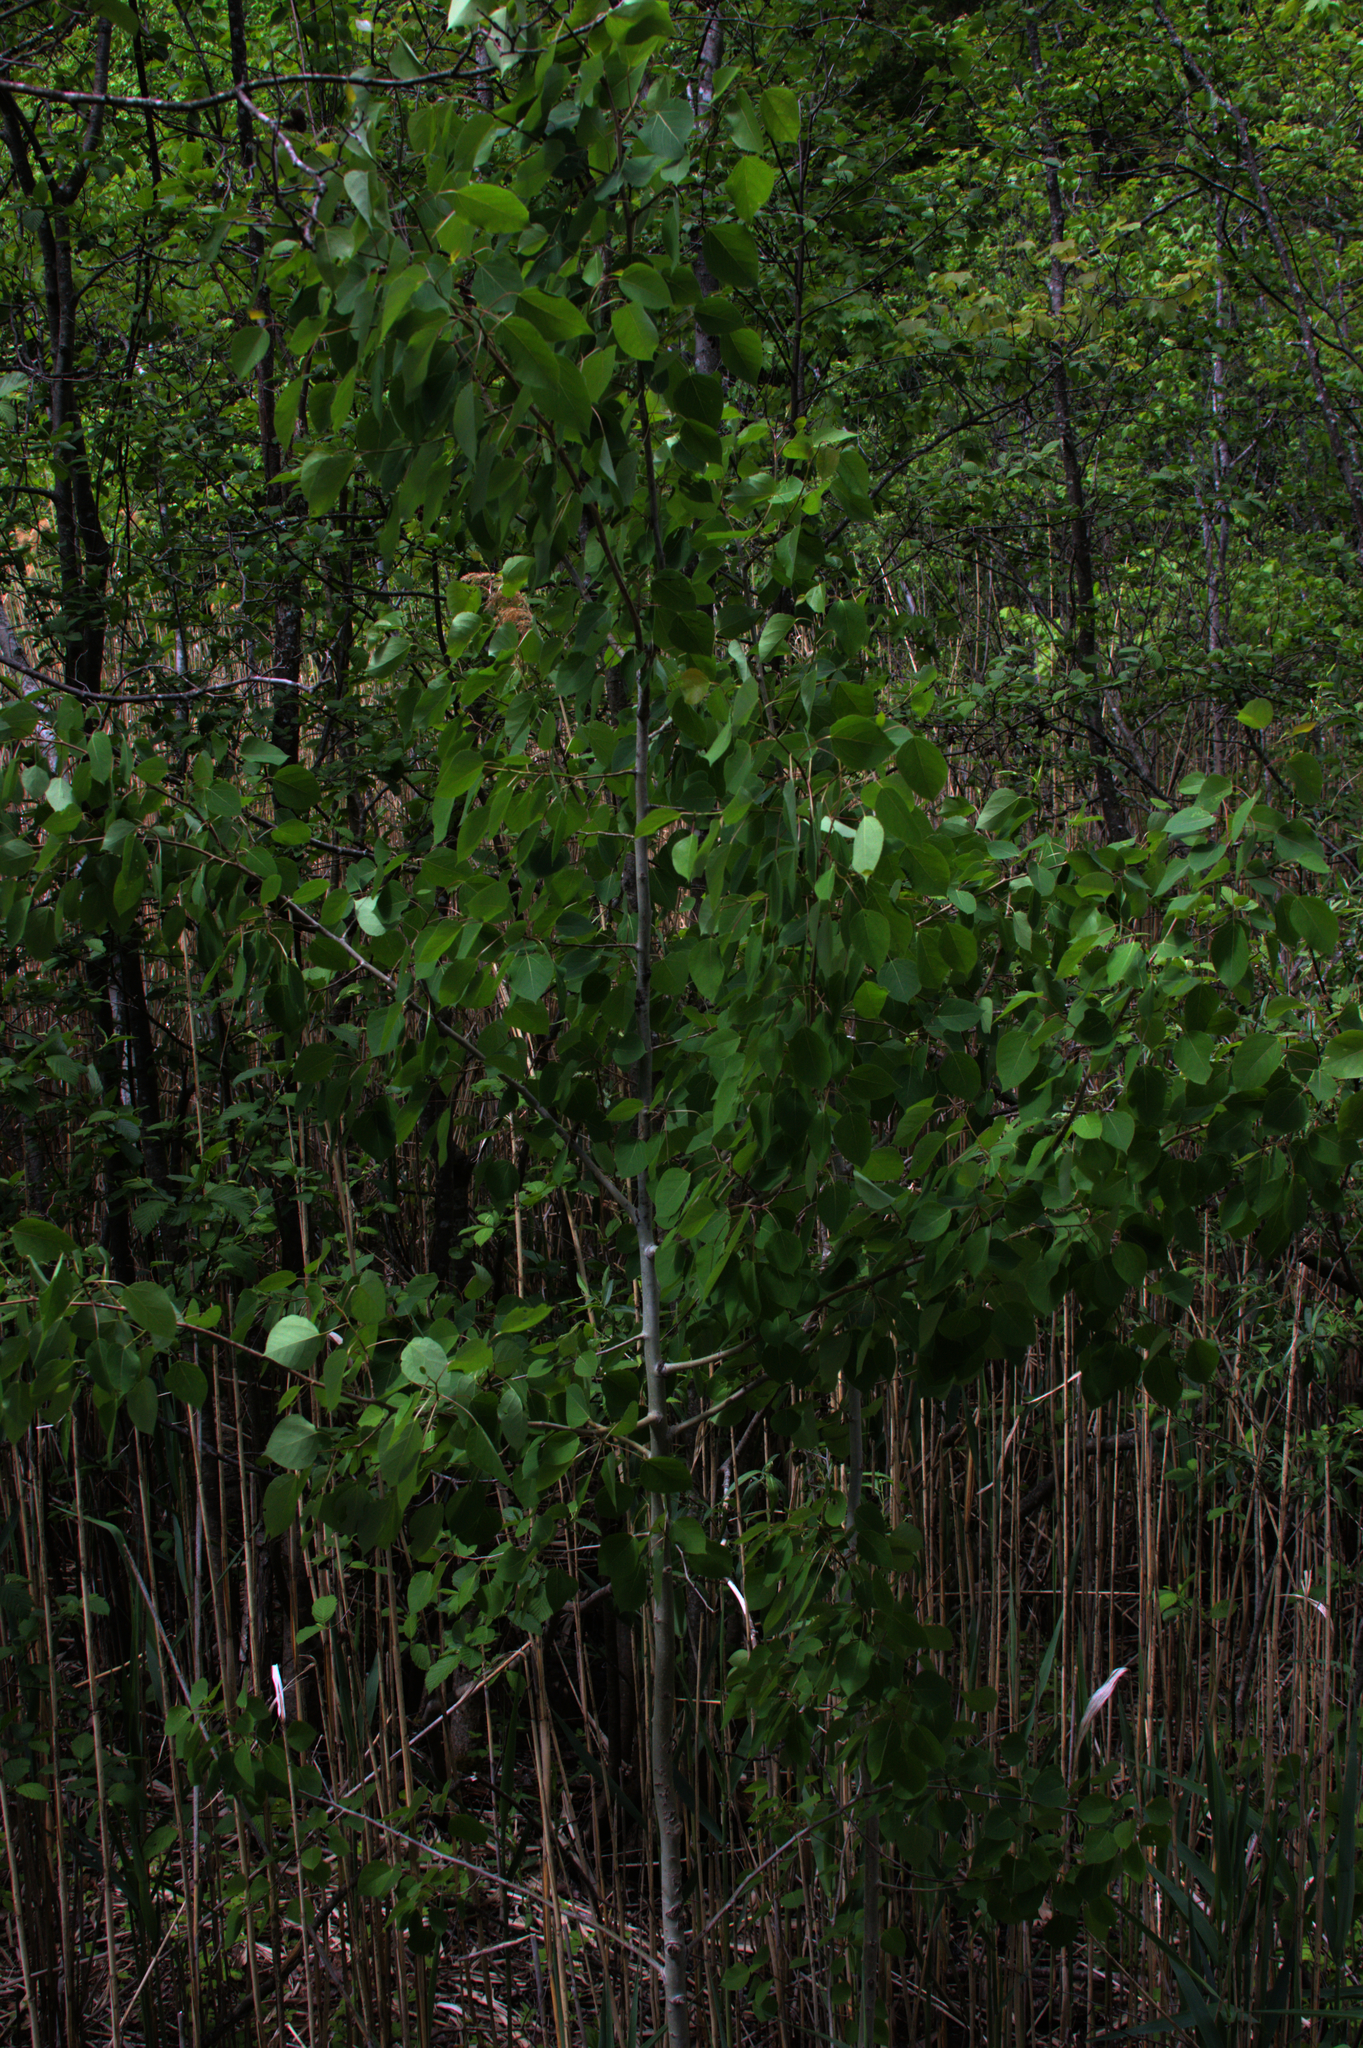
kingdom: Plantae
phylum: Tracheophyta
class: Magnoliopsida
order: Malpighiales
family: Salicaceae
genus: Populus
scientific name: Populus tremuloides
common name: Quaking aspen
